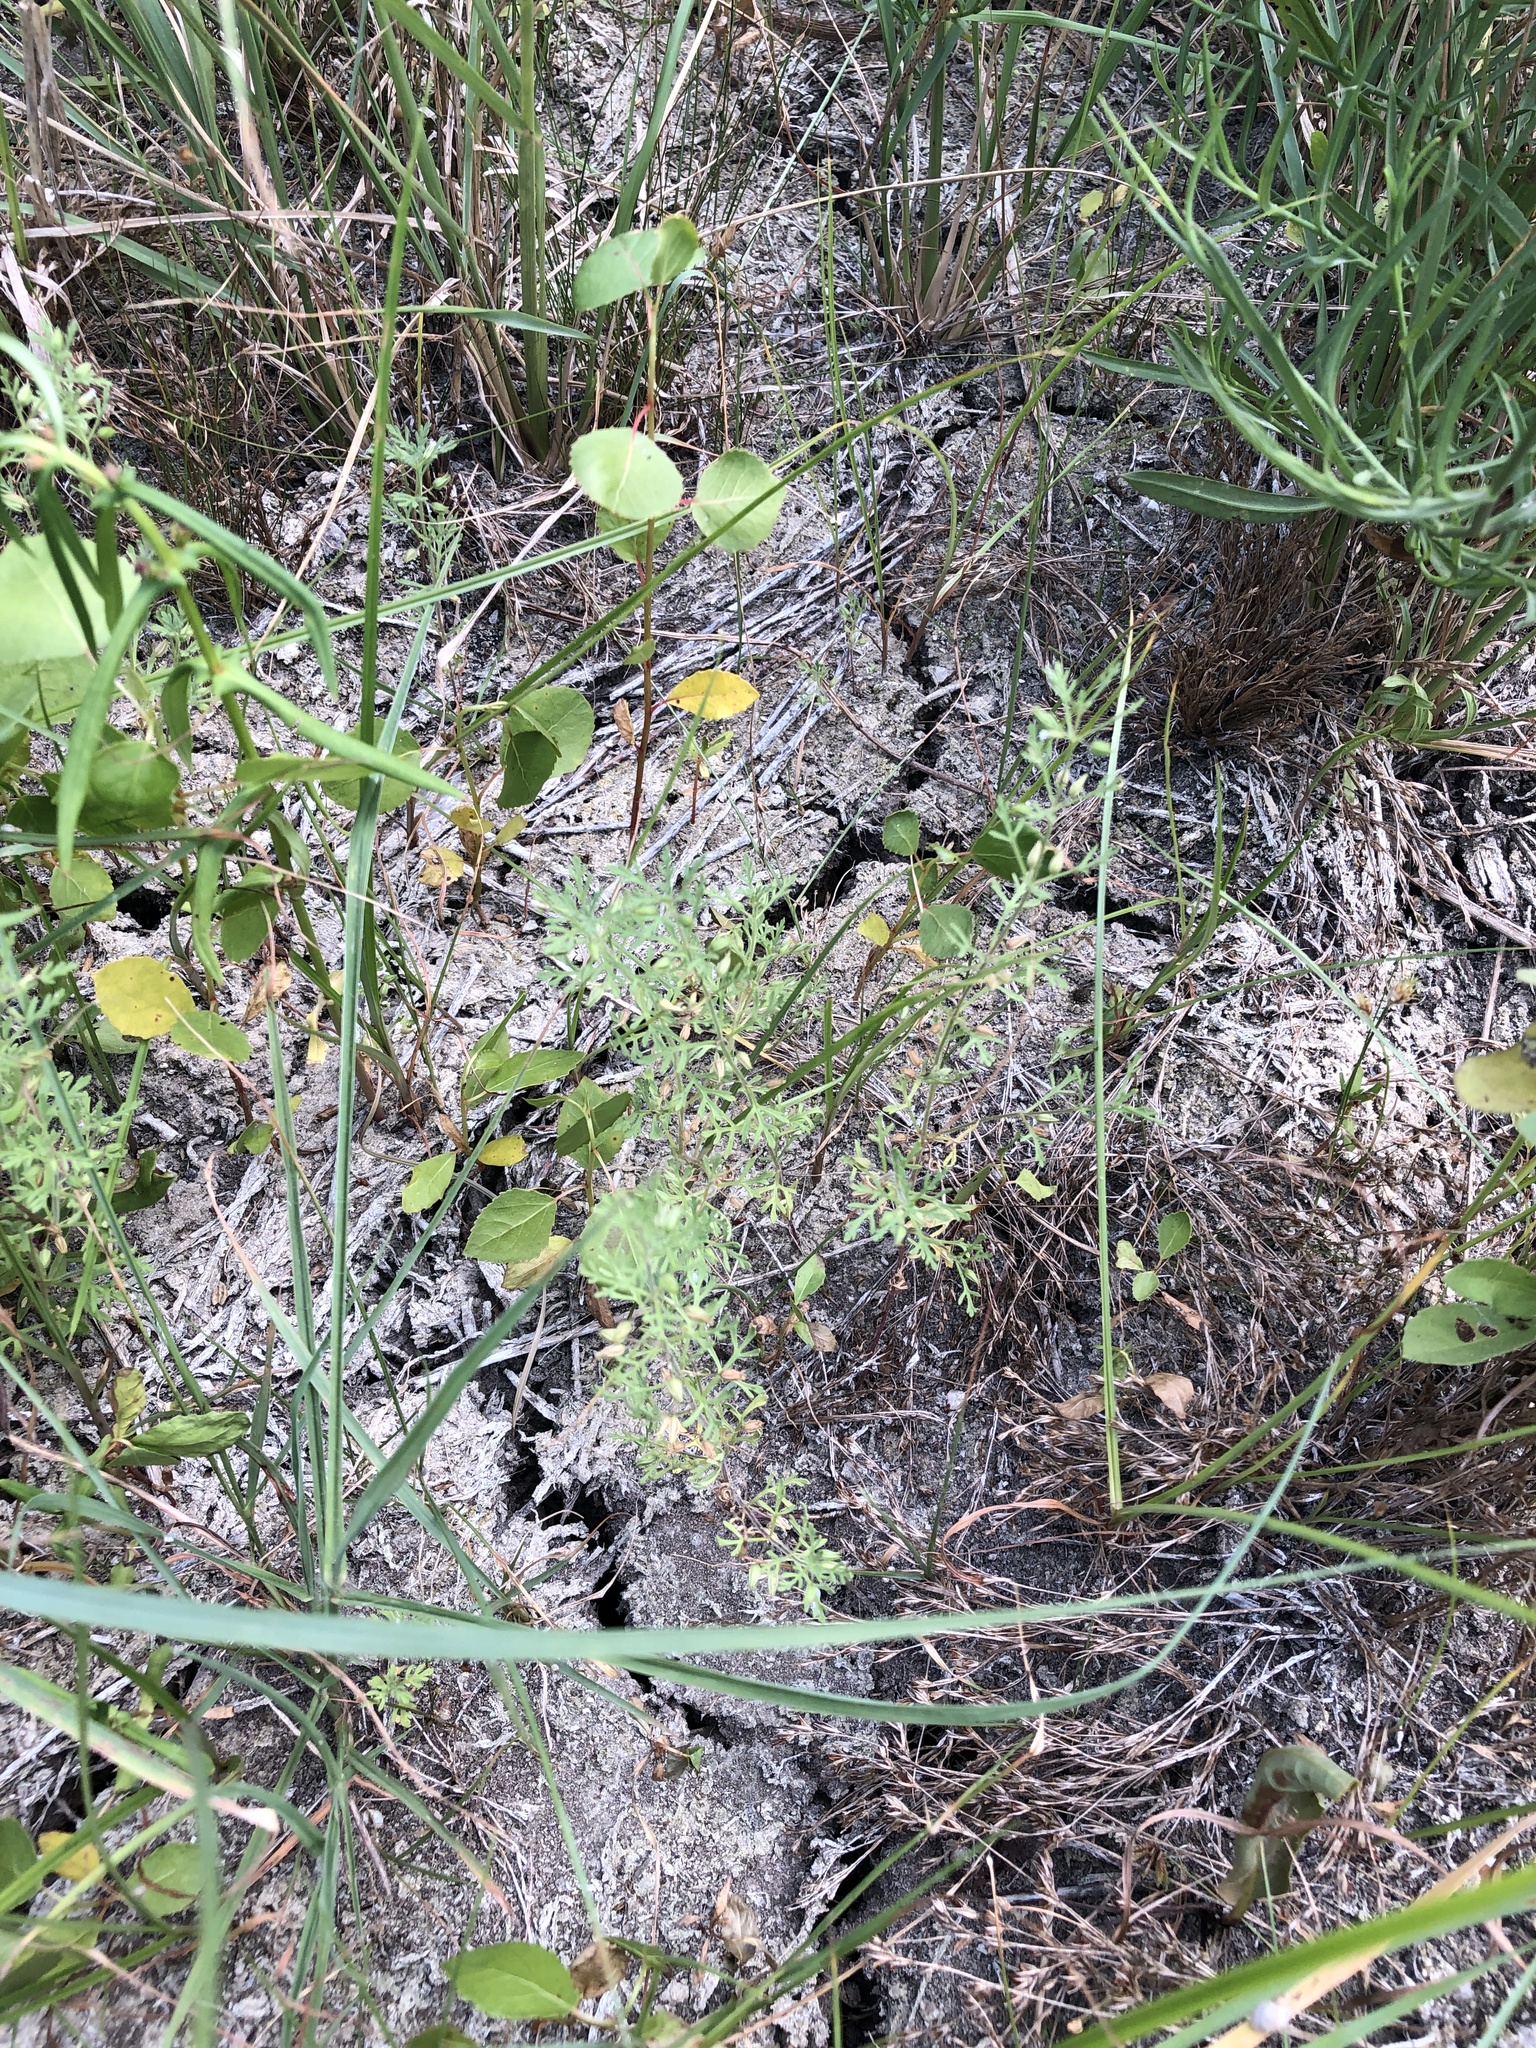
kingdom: Plantae
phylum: Tracheophyta
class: Magnoliopsida
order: Lamiales
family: Plantaginaceae
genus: Leucospora
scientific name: Leucospora multifida
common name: Narrow-leaf paleseed
